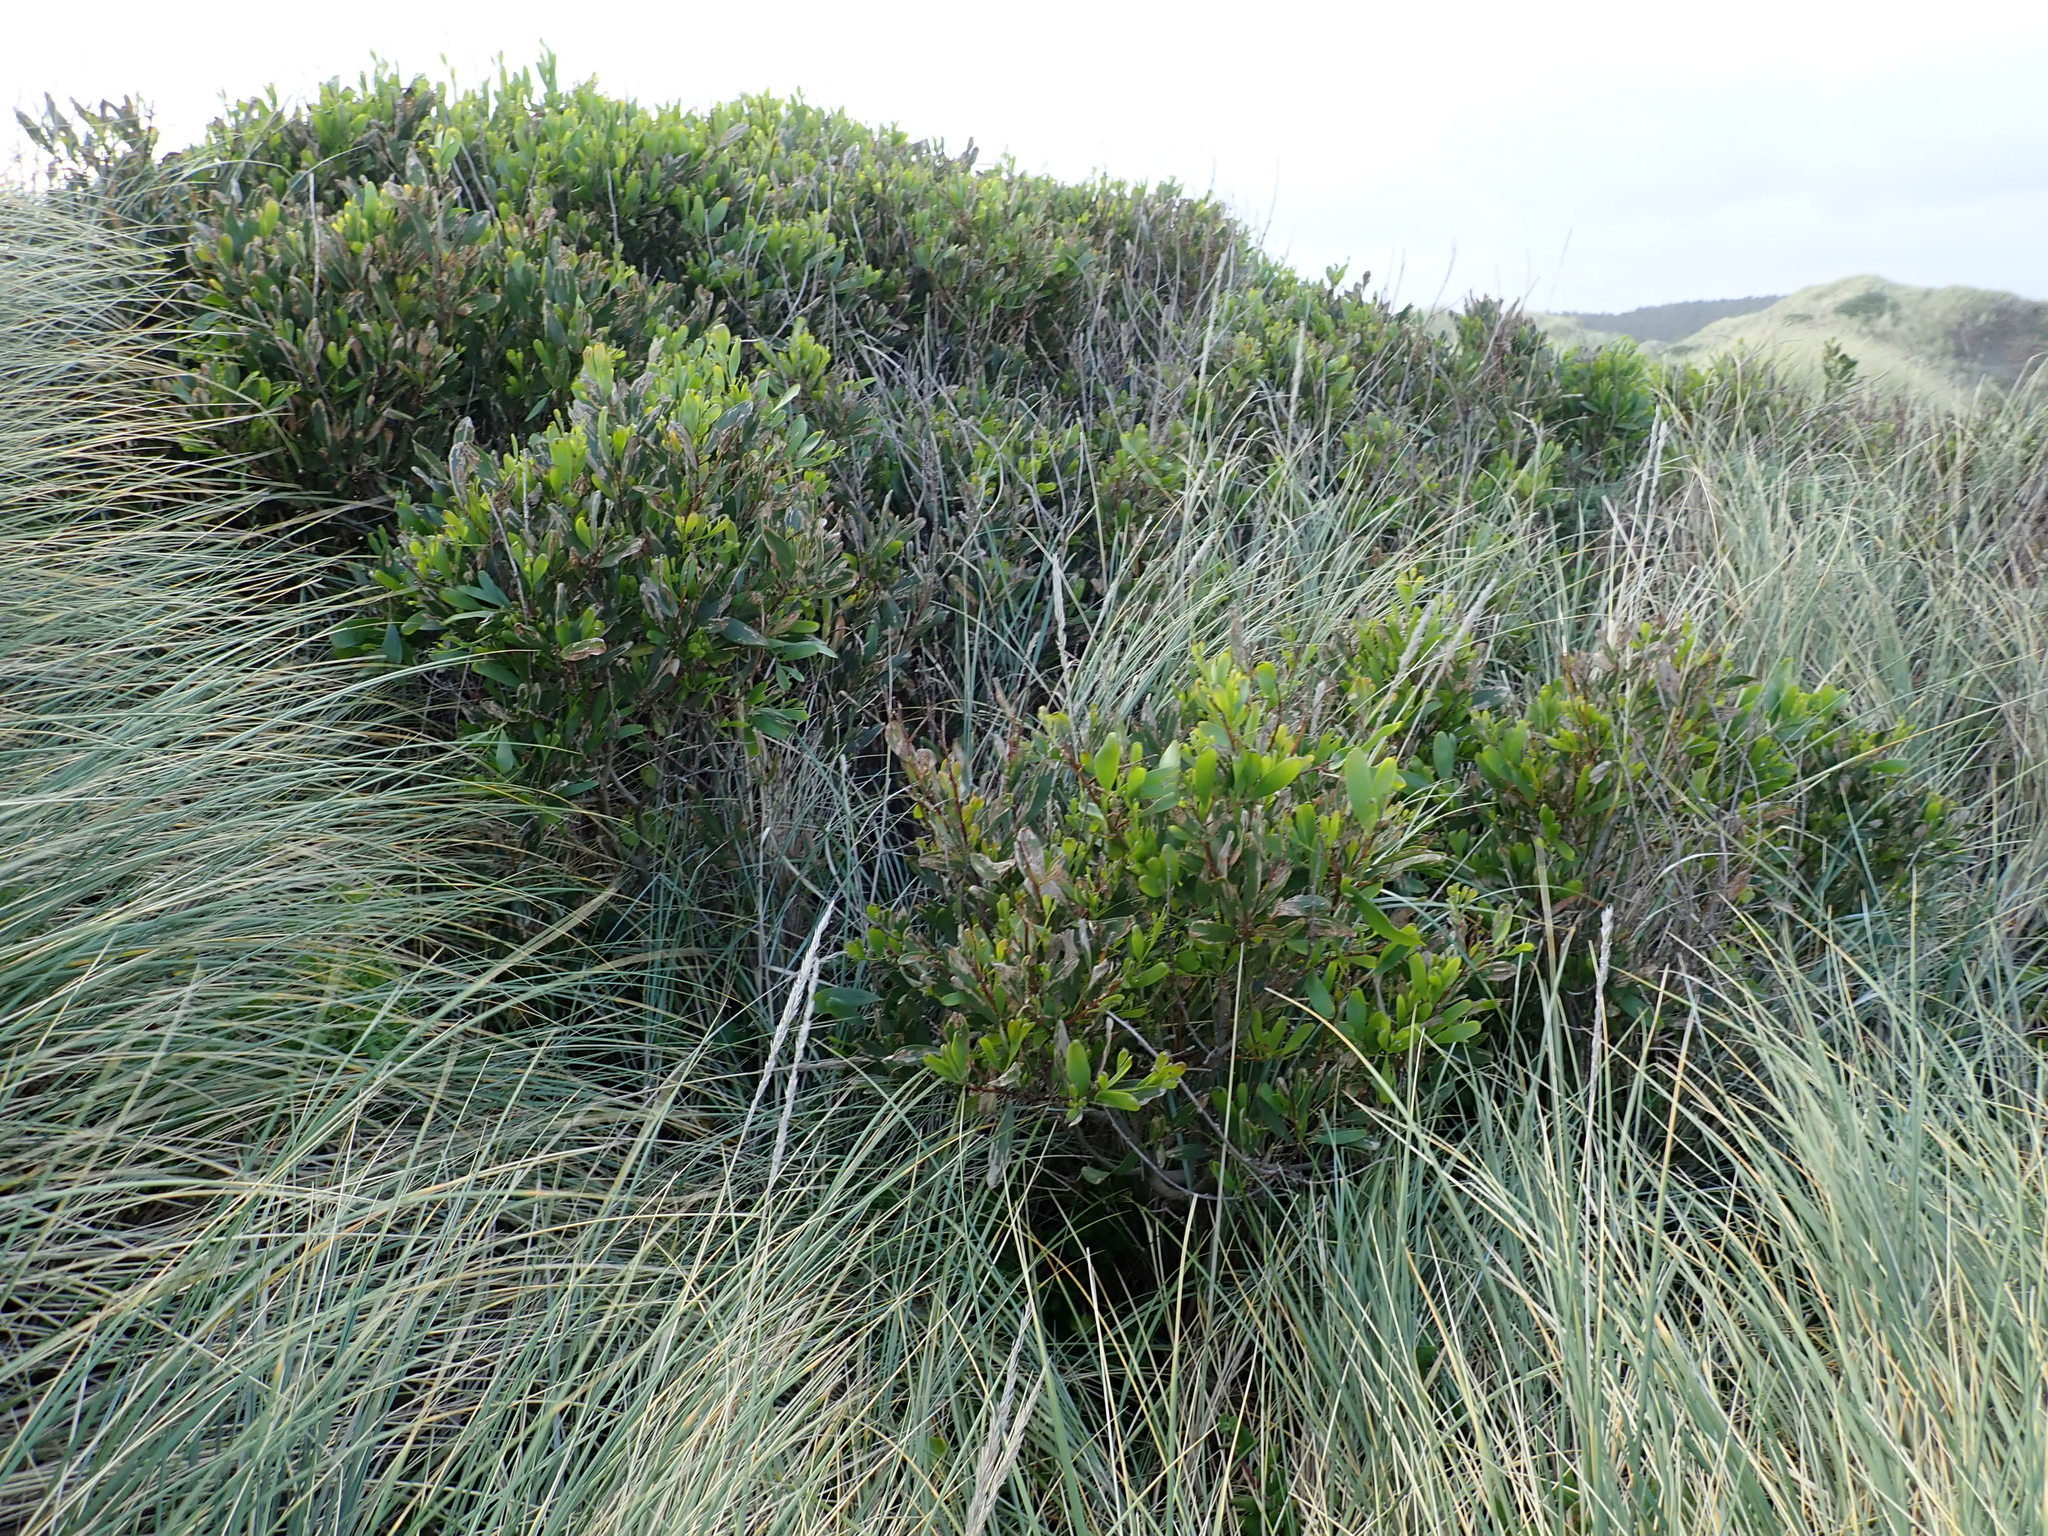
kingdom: Plantae
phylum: Tracheophyta
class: Magnoliopsida
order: Fabales
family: Fabaceae
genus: Acacia
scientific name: Acacia longifolia
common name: Sydney golden wattle
